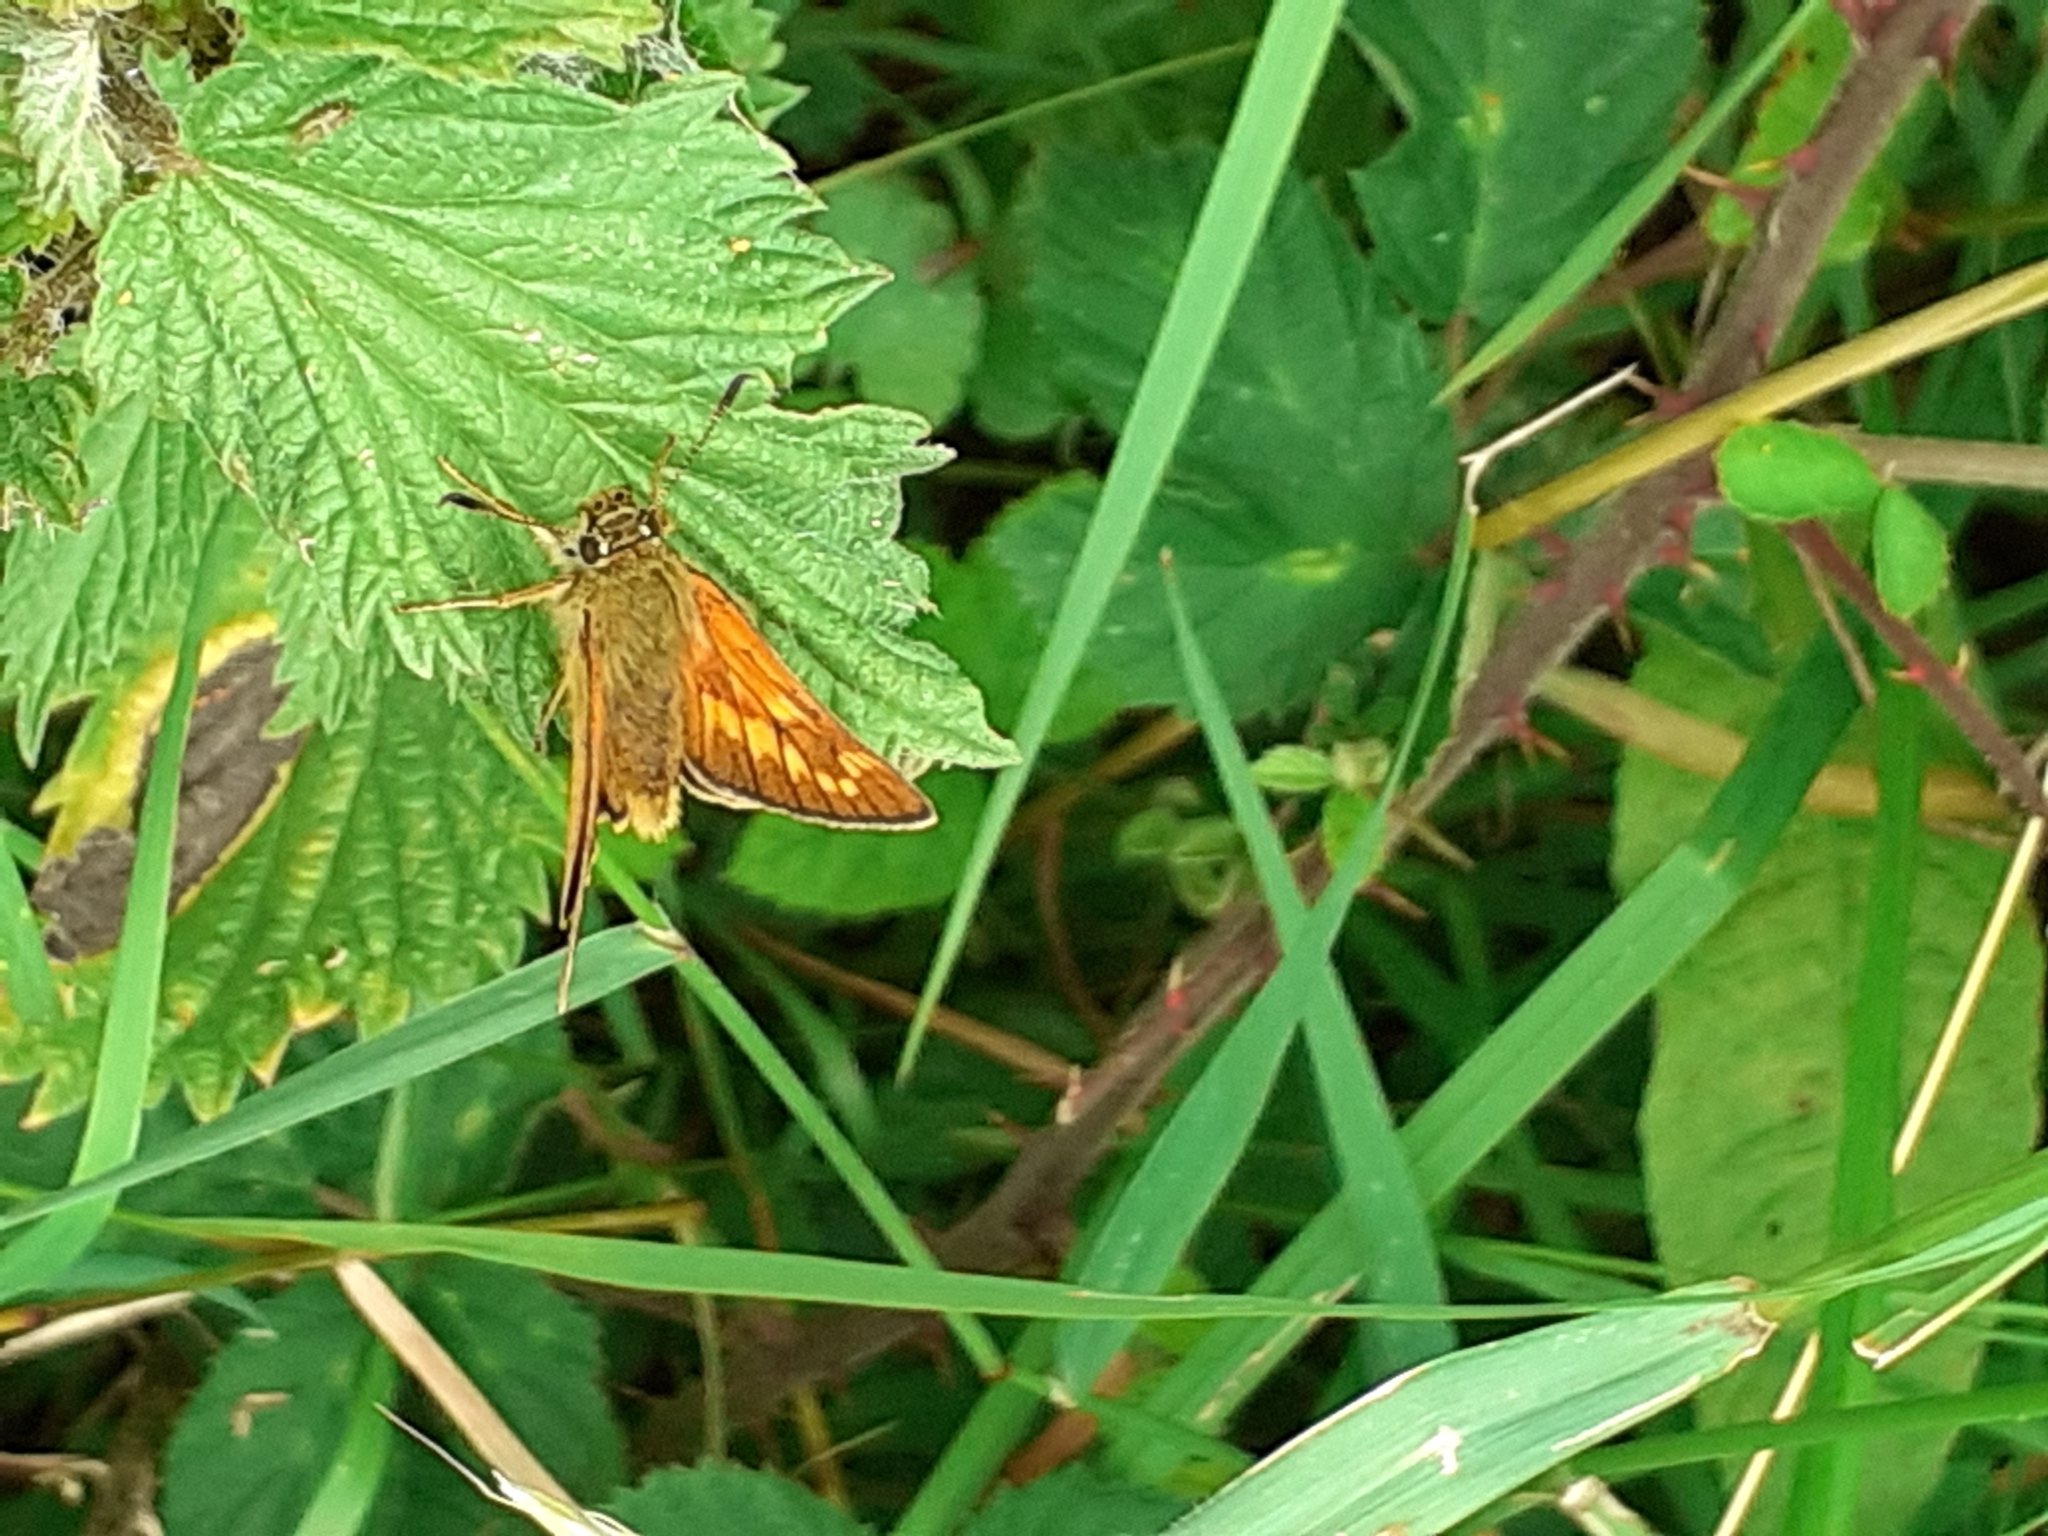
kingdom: Animalia
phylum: Arthropoda
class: Insecta
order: Lepidoptera
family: Hesperiidae
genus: Ochlodes
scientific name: Ochlodes venata
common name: Large skipper
